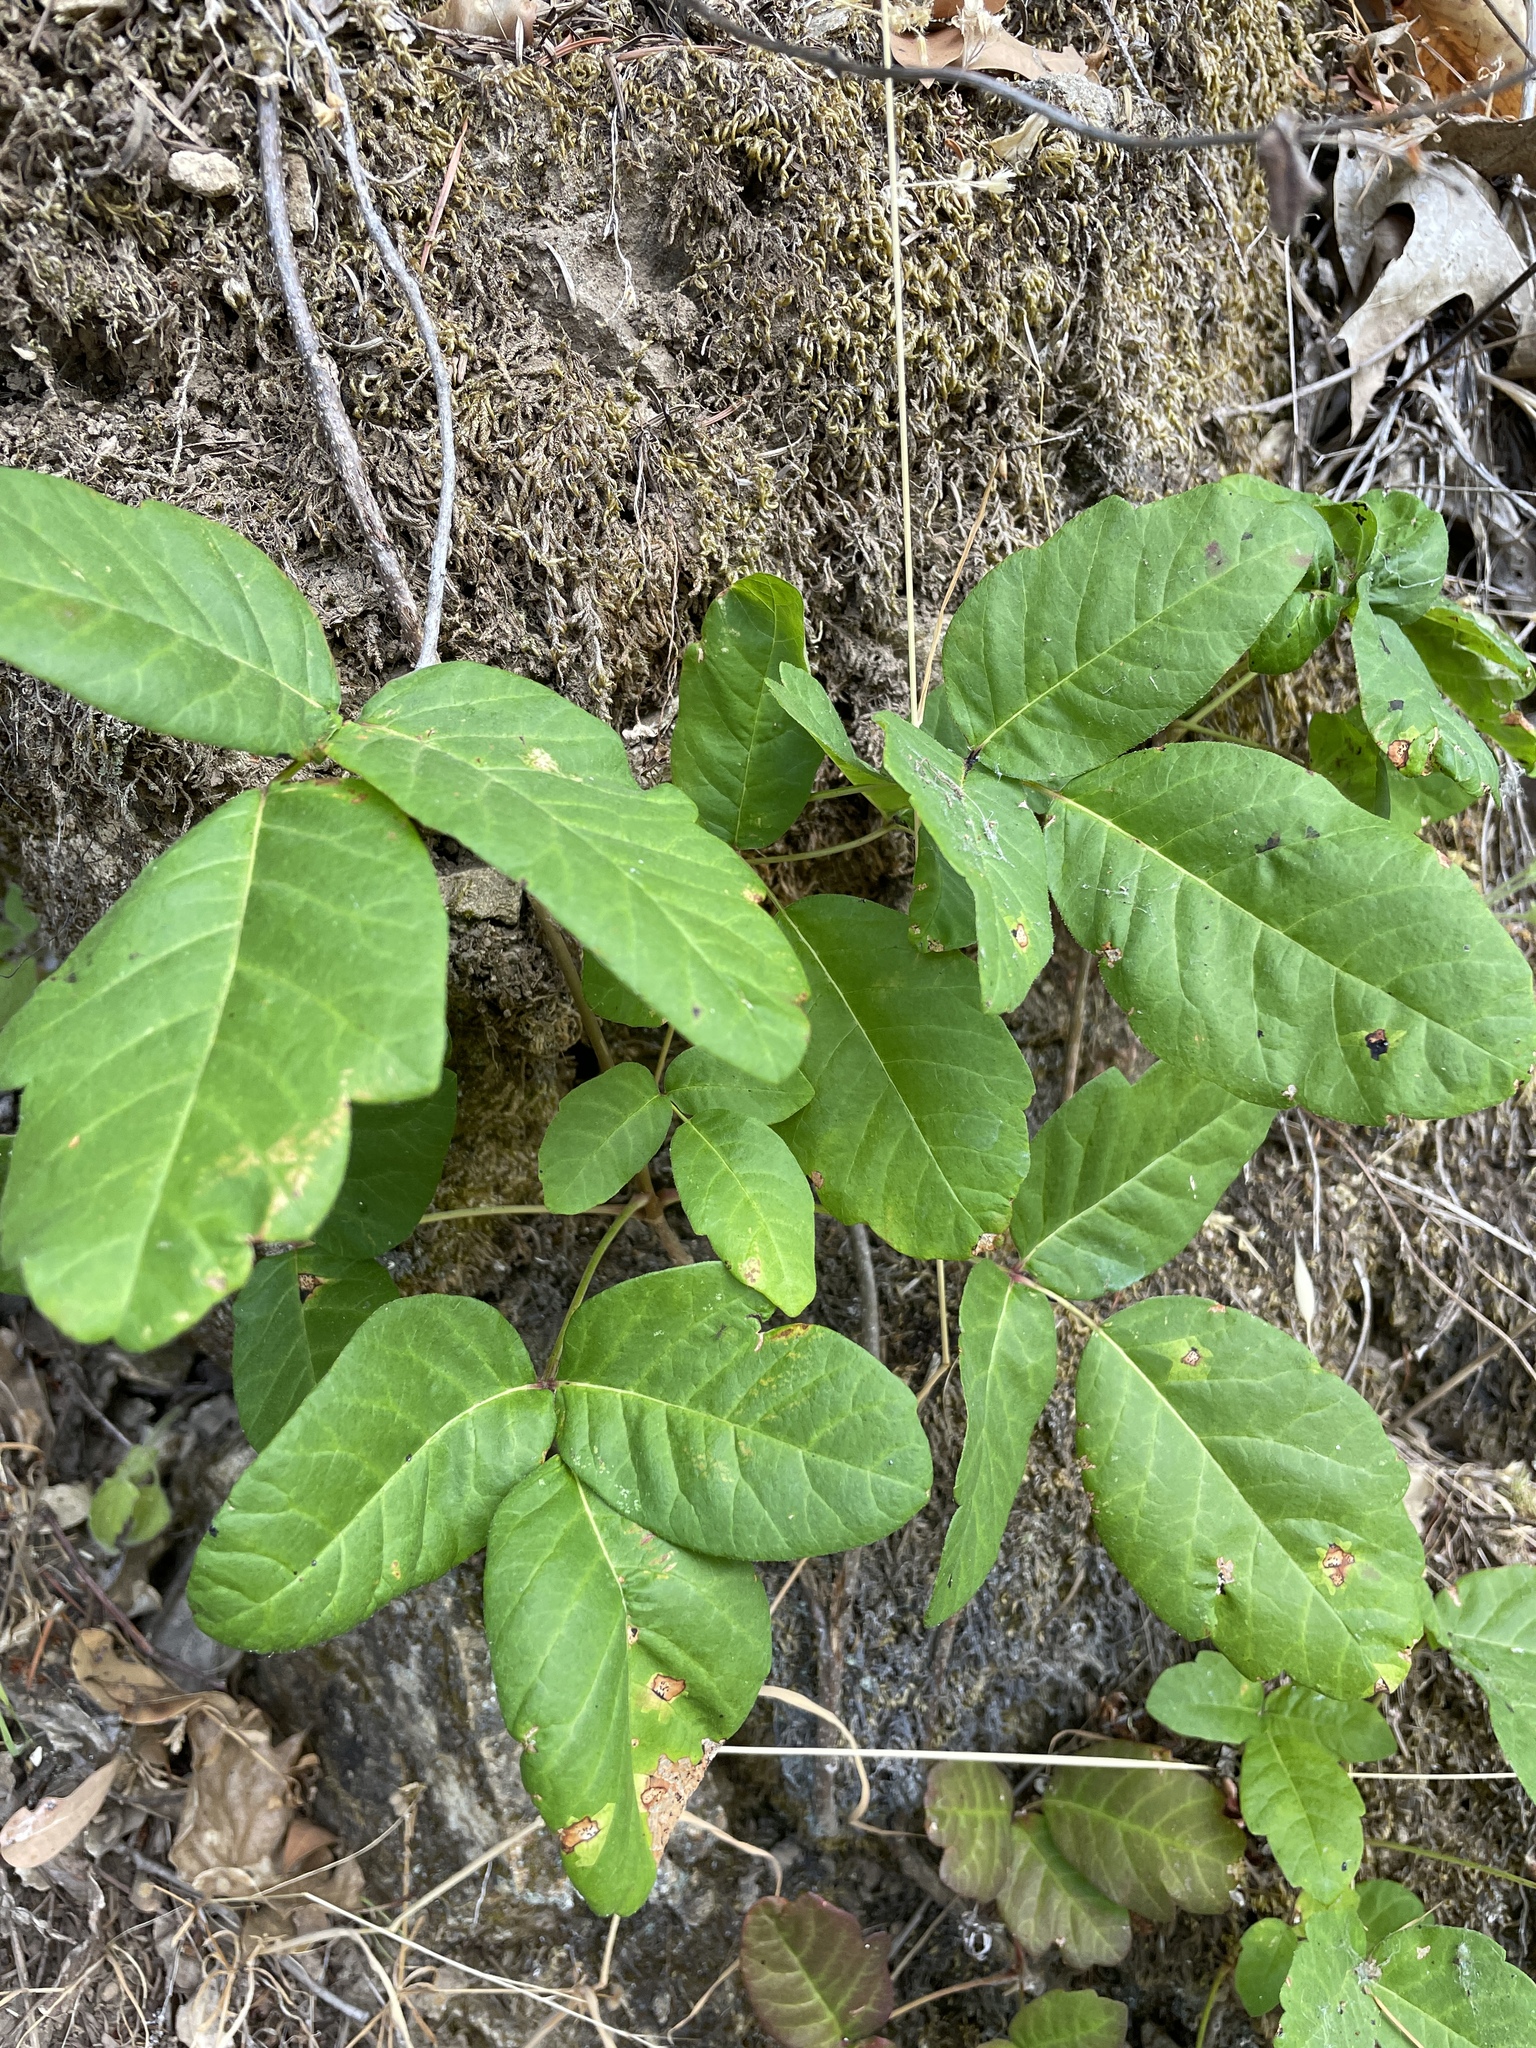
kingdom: Plantae
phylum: Tracheophyta
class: Magnoliopsida
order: Sapindales
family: Anacardiaceae
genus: Toxicodendron
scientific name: Toxicodendron diversilobum
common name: Pacific poison-oak
